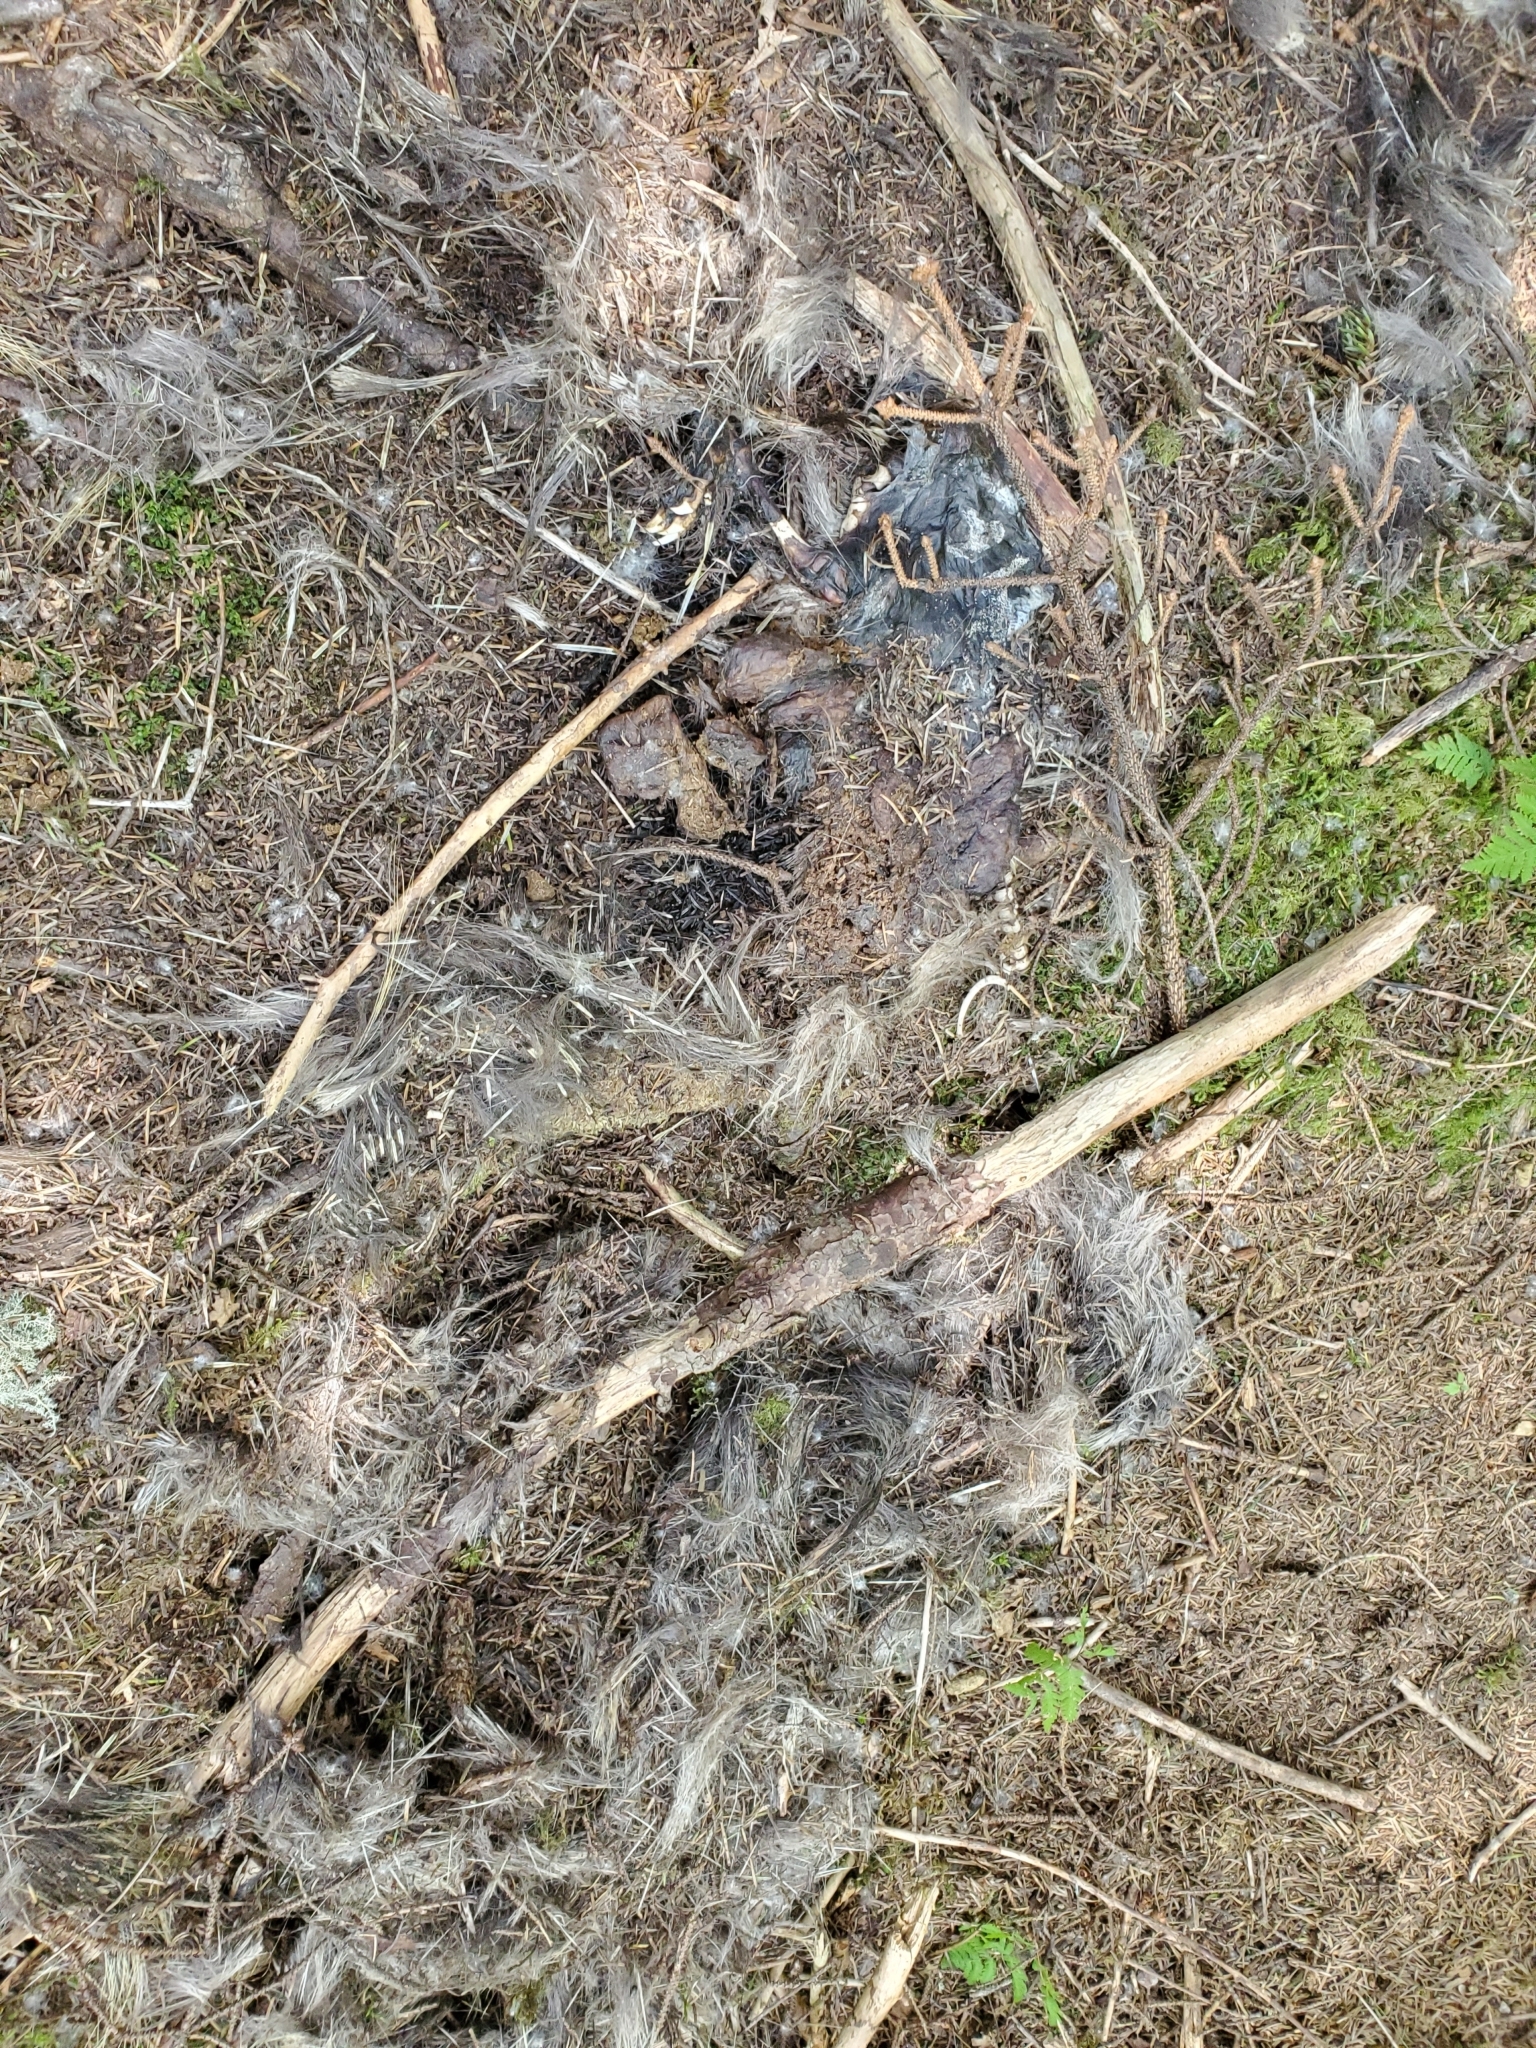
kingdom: Animalia
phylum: Chordata
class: Mammalia
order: Rodentia
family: Erethizontidae
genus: Erethizon
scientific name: Erethizon dorsatus
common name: North american porcupine
